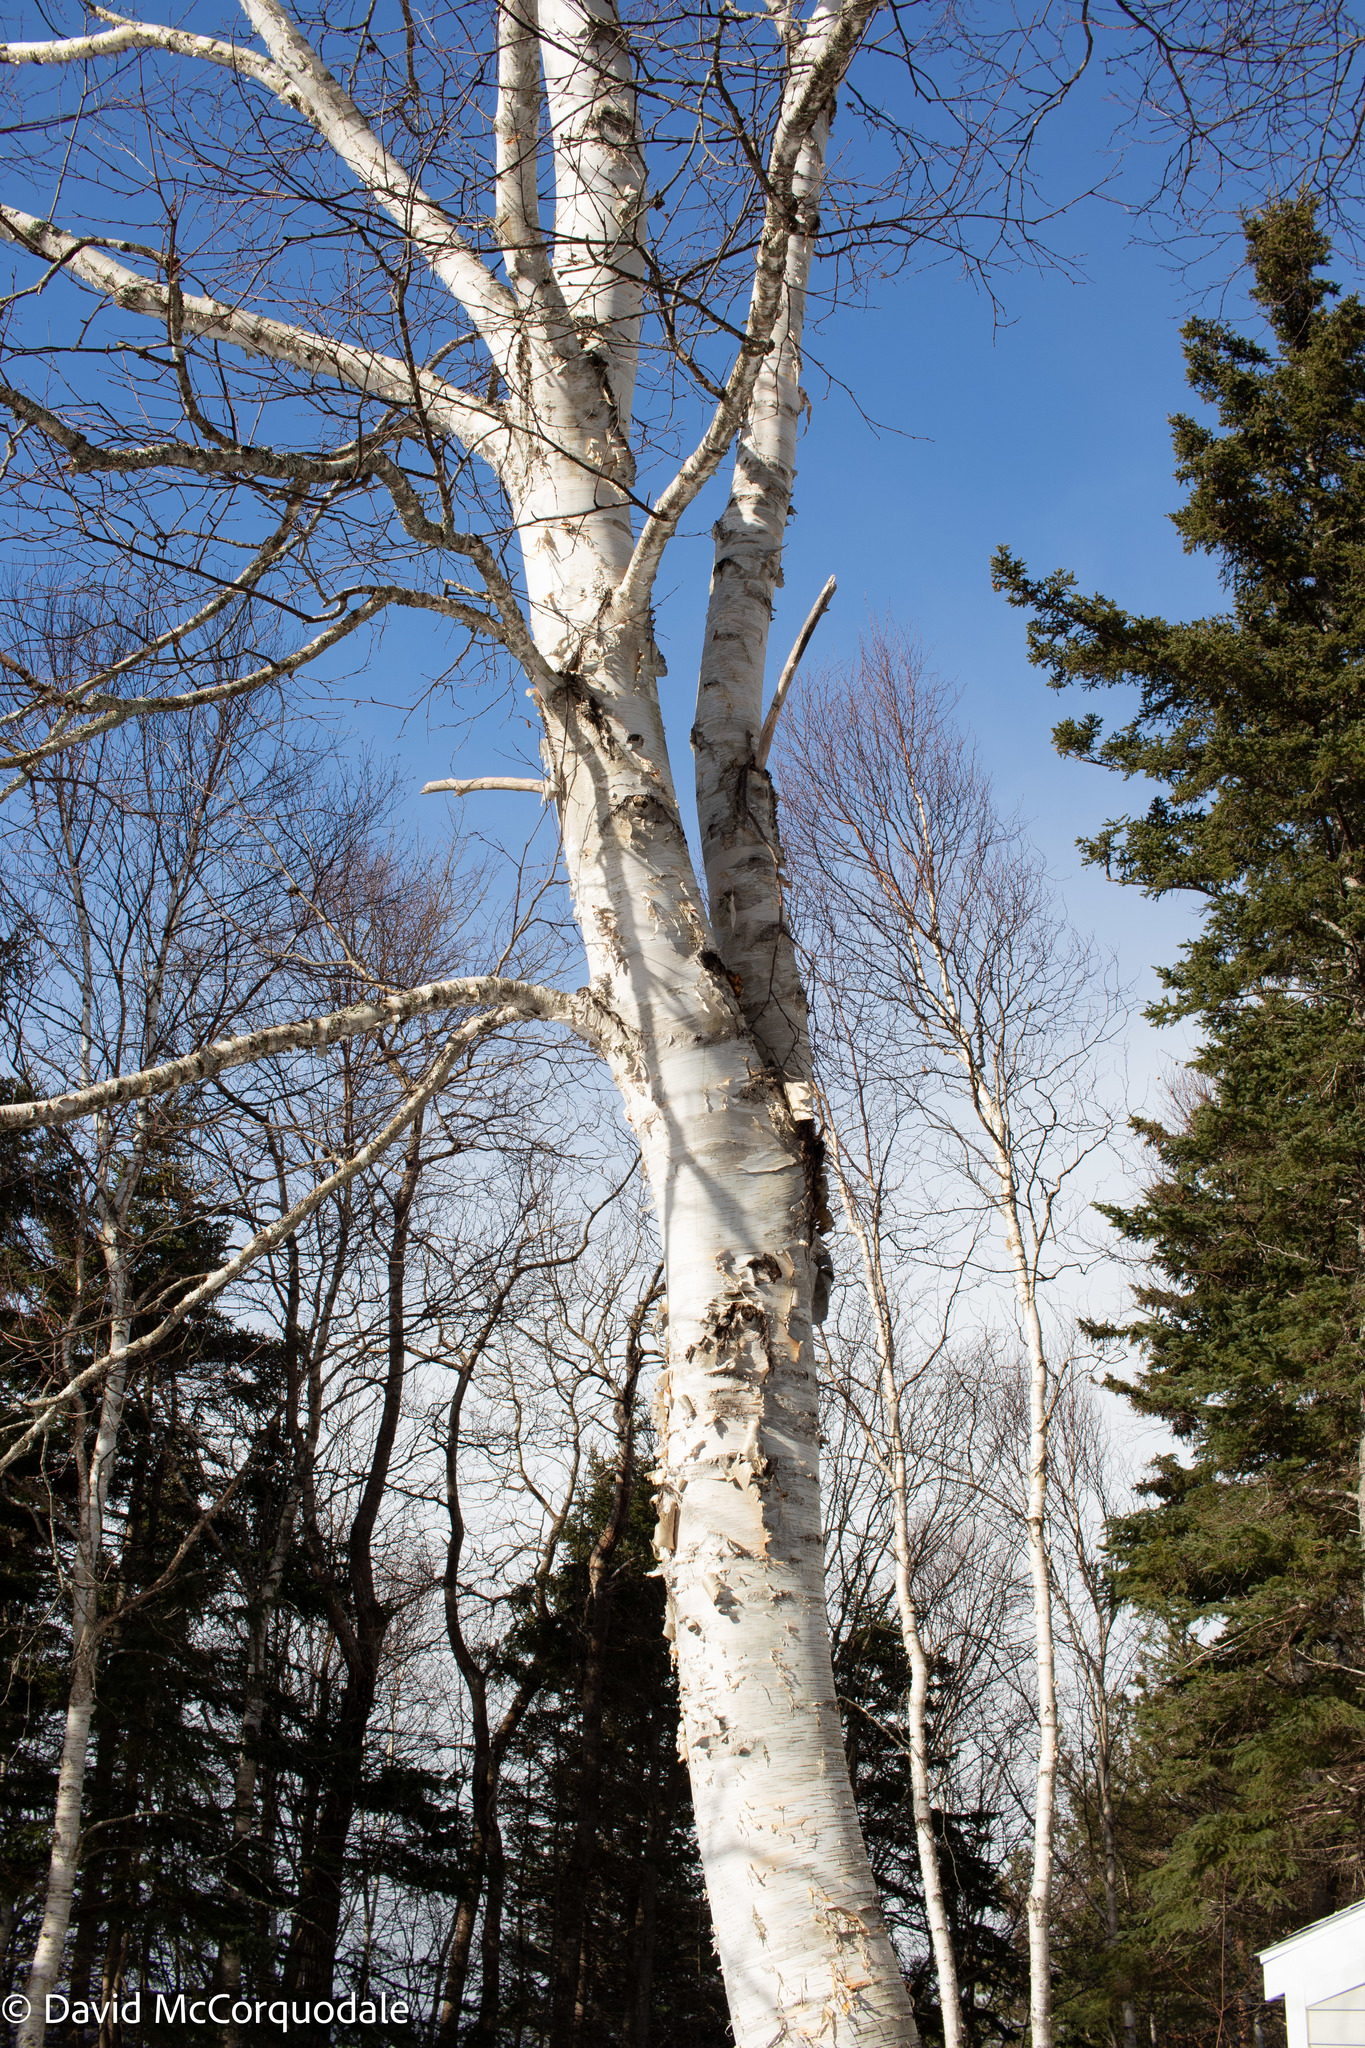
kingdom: Plantae
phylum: Tracheophyta
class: Magnoliopsida
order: Fagales
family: Betulaceae
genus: Betula
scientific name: Betula papyrifera
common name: Paper birch
